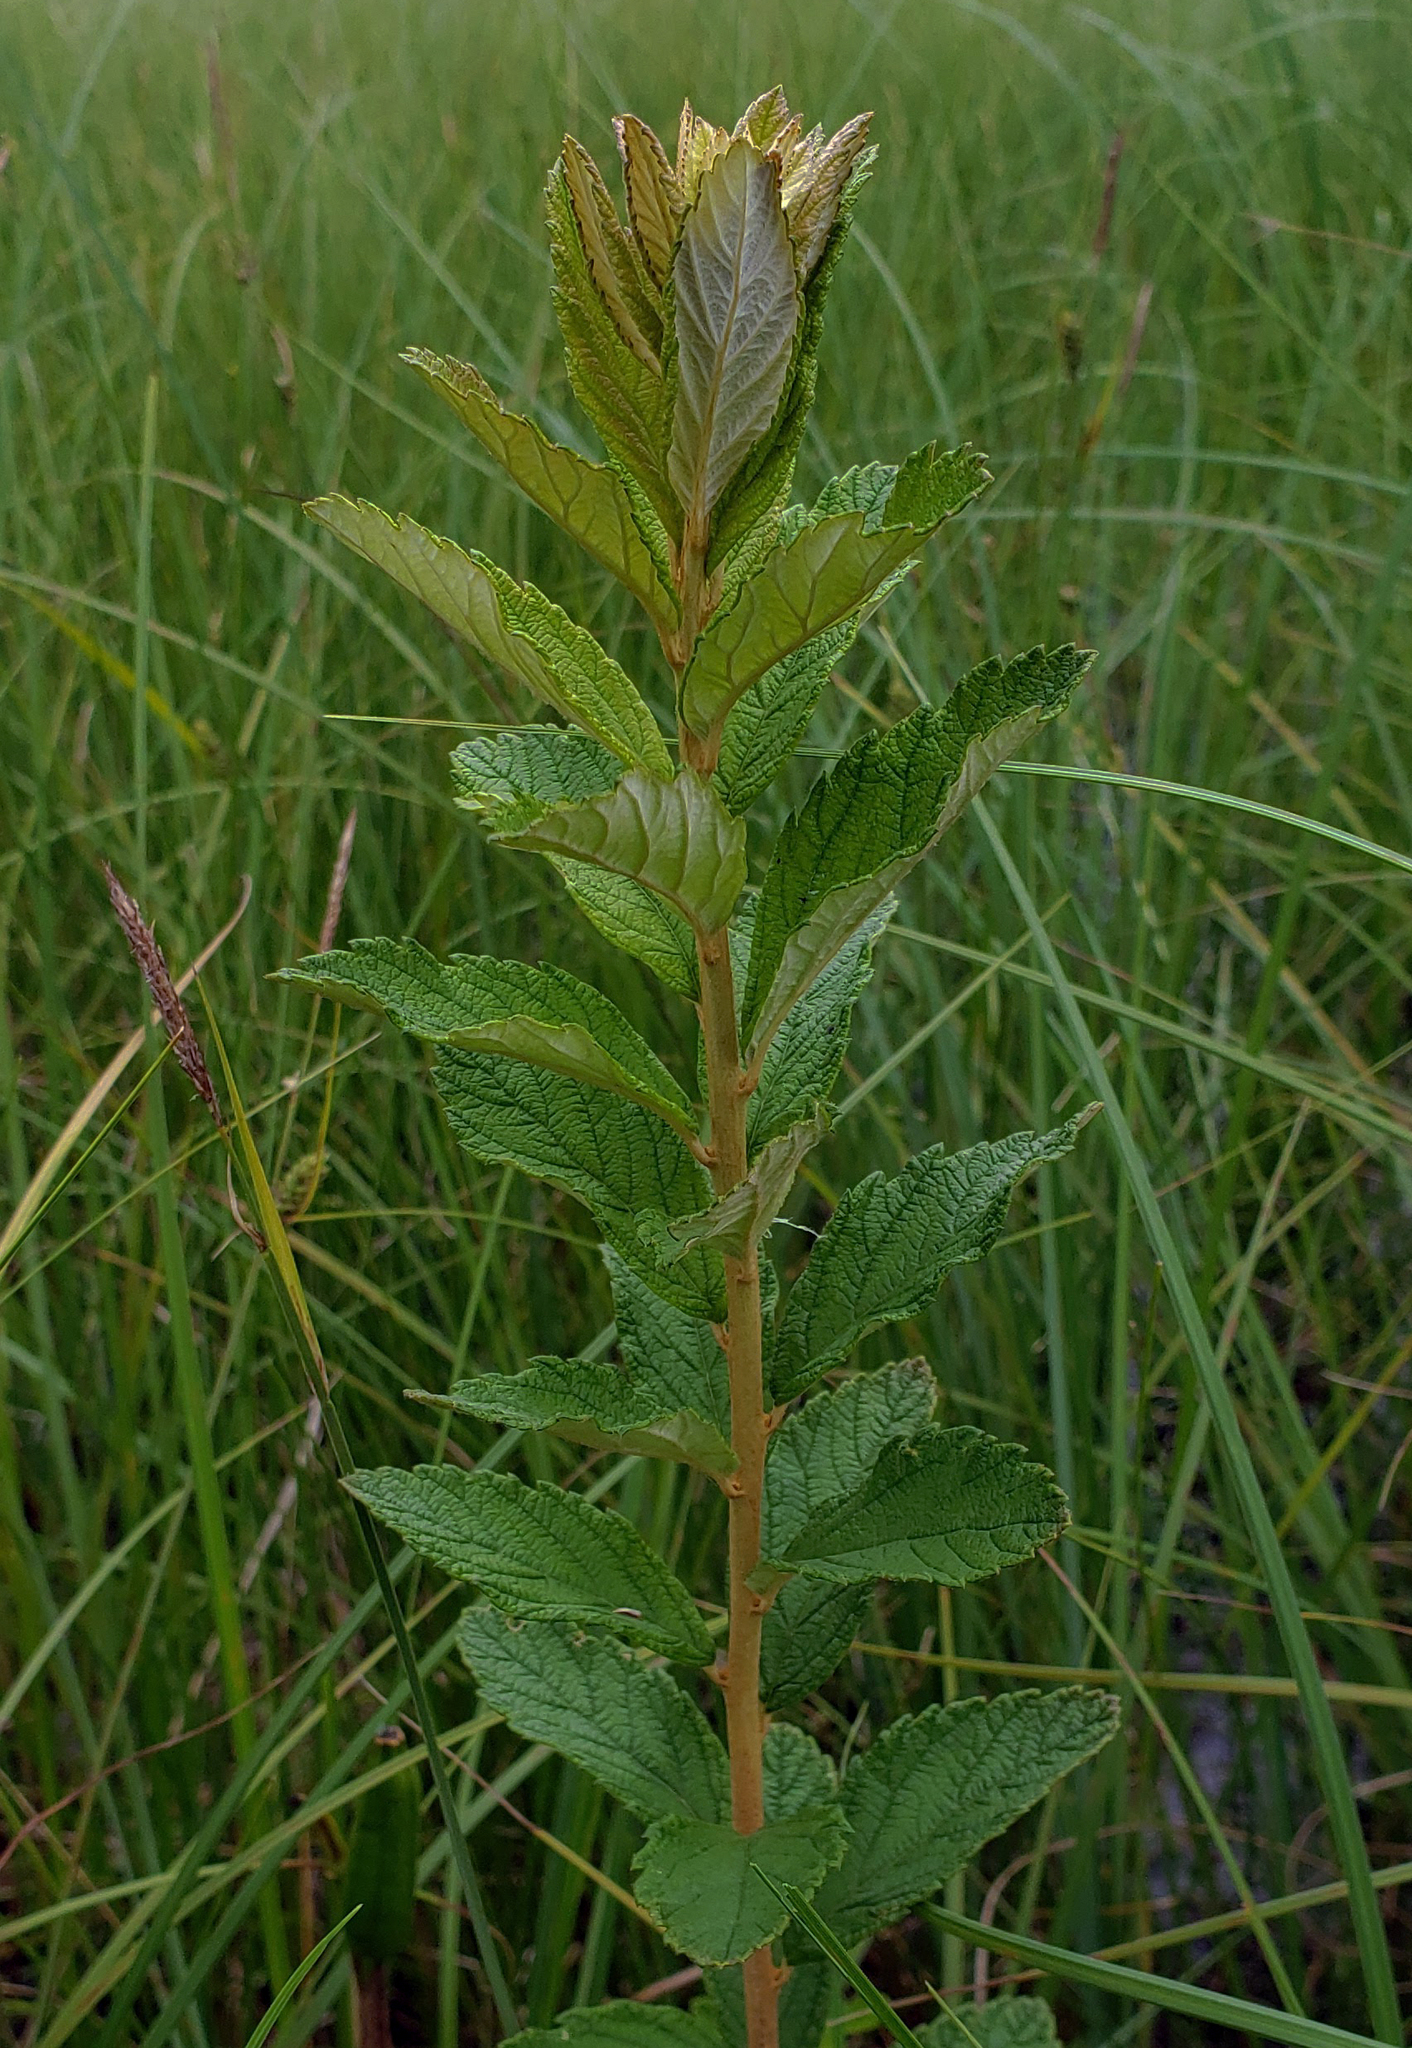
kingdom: Plantae
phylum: Tracheophyta
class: Magnoliopsida
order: Rosales
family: Rosaceae
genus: Spiraea
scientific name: Spiraea tomentosa
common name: Hardhack
